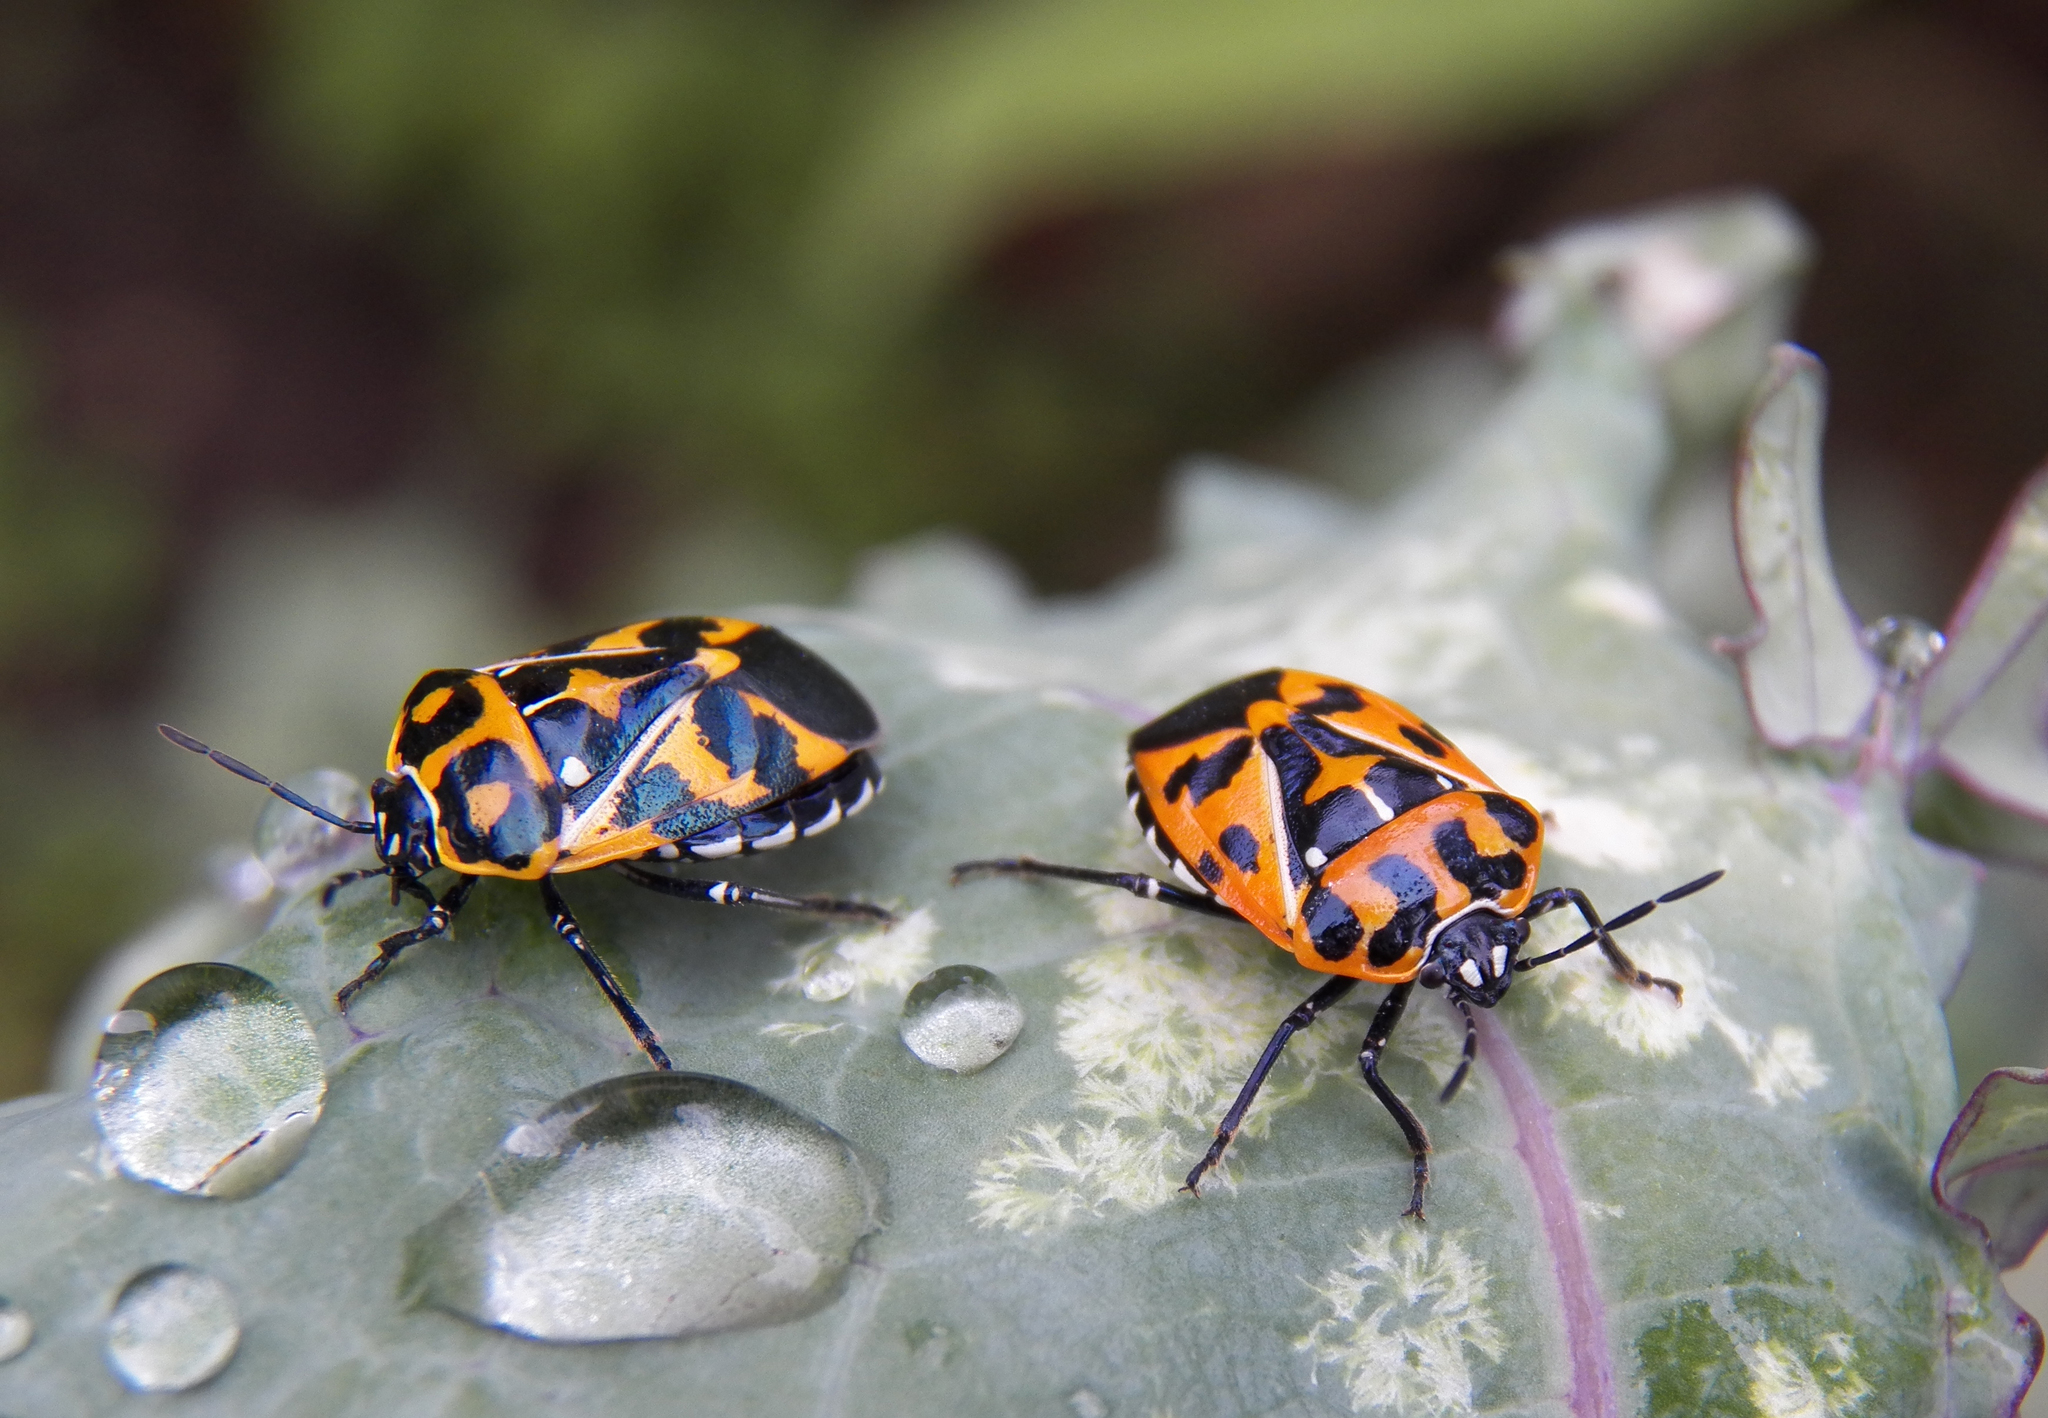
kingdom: Animalia
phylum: Arthropoda
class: Insecta
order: Hemiptera
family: Pentatomidae
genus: Murgantia
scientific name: Murgantia histrionica
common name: Harlequin bug
